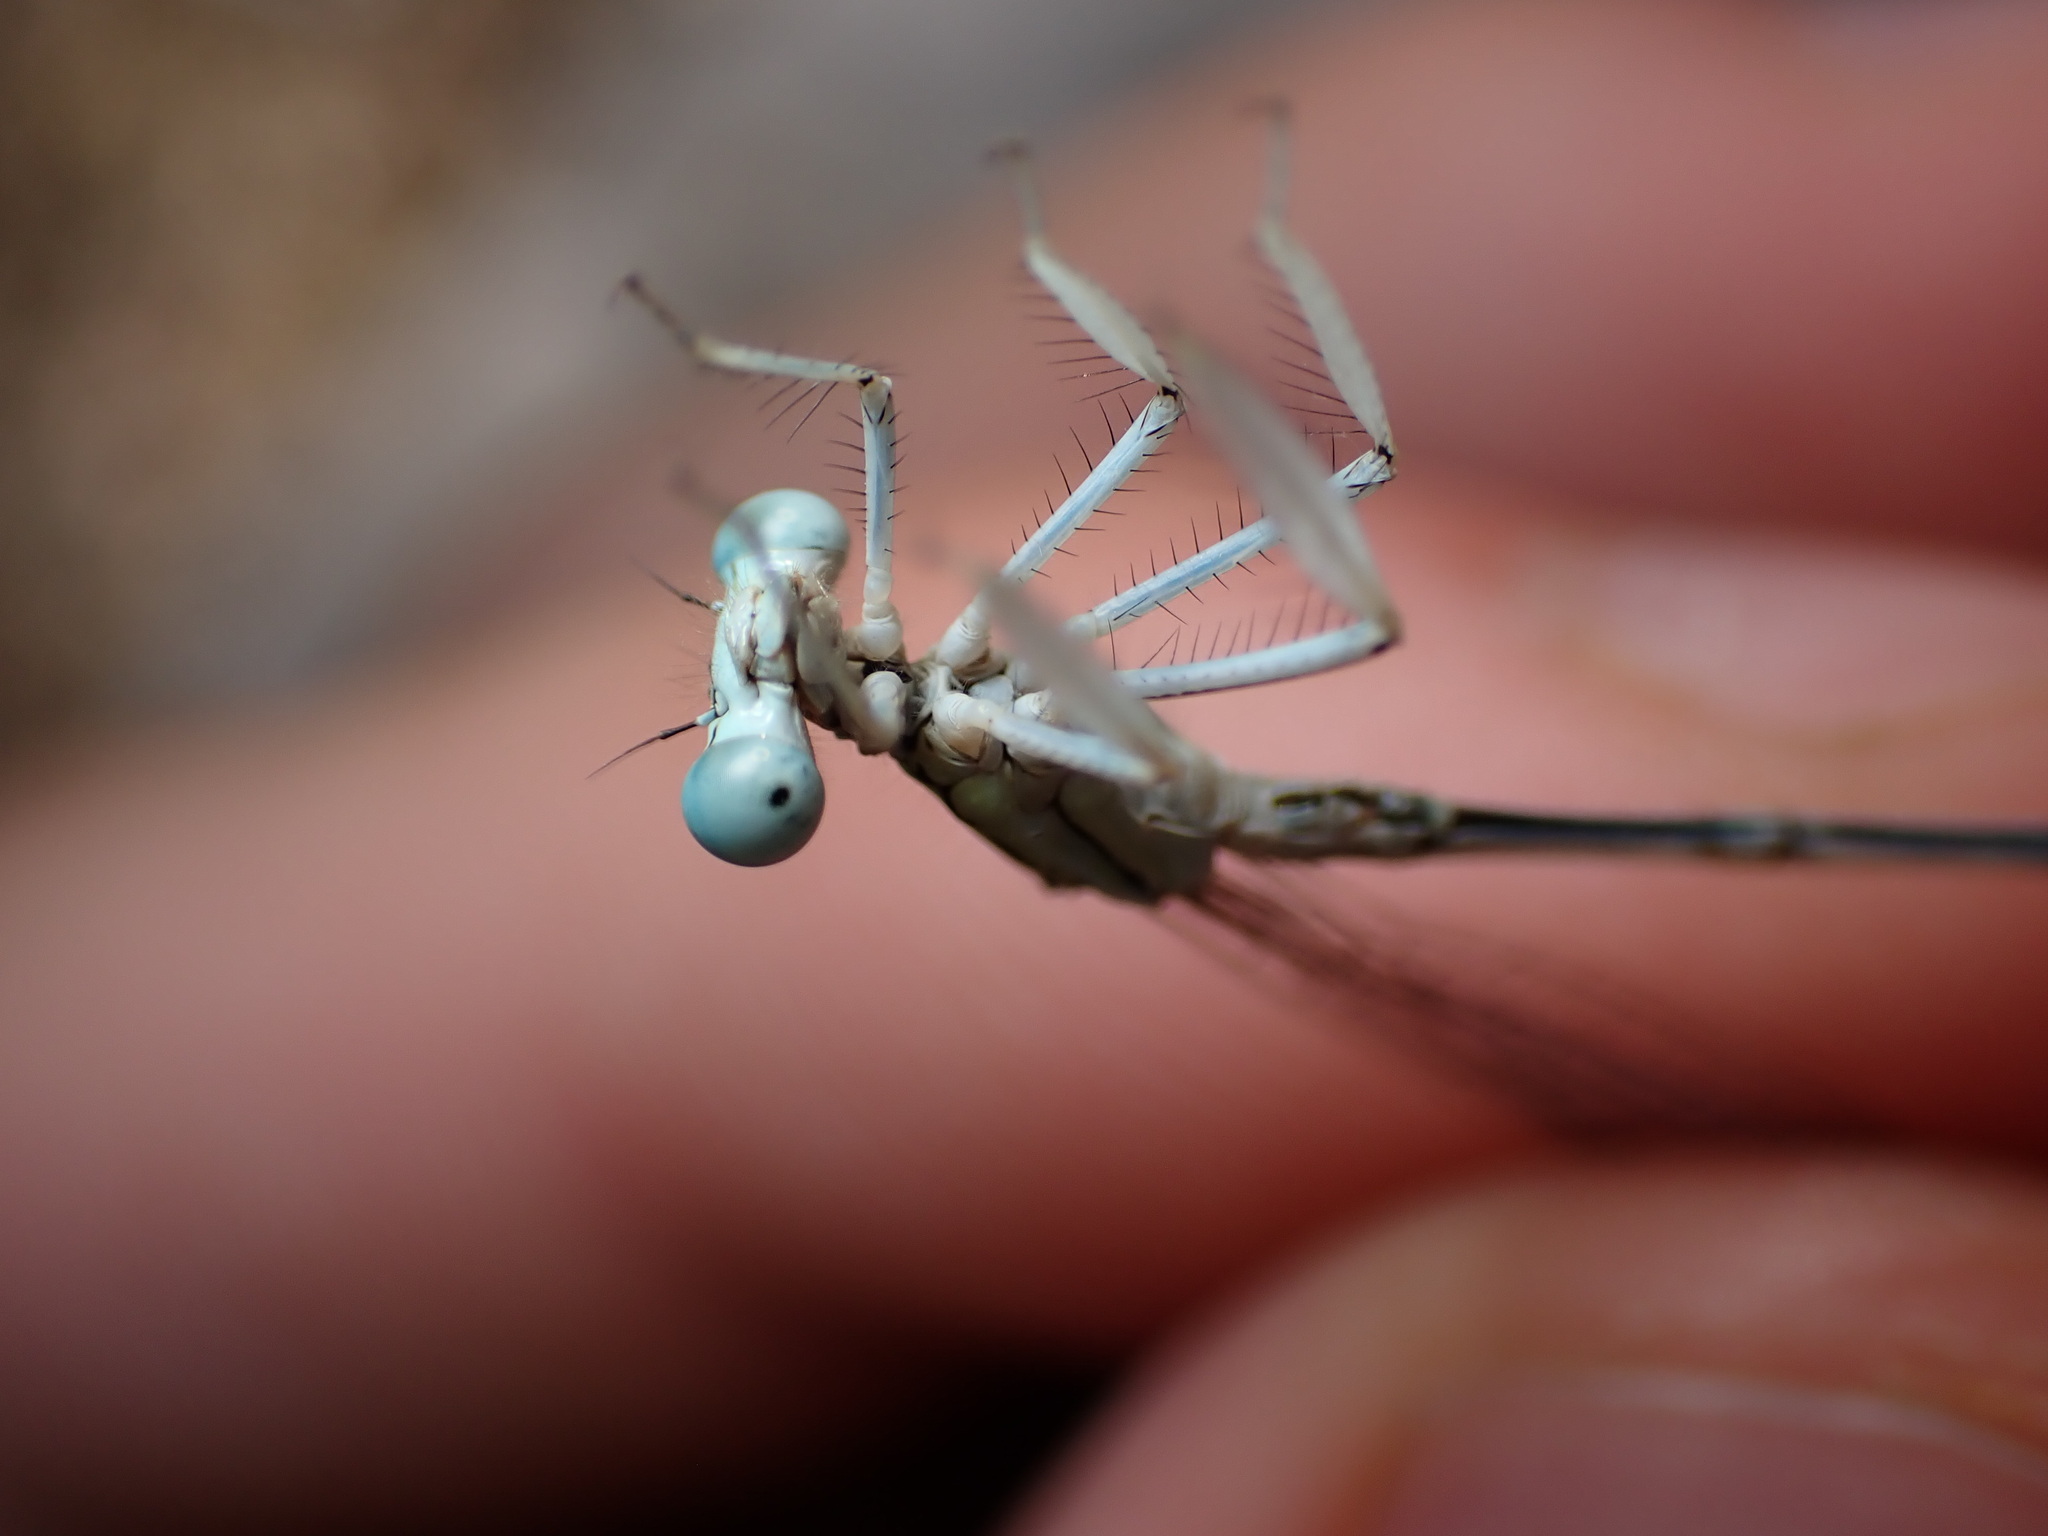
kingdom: Animalia
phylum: Arthropoda
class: Insecta
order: Odonata
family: Platycnemididae
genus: Platycnemis
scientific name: Platycnemis latipes
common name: White featherleg
